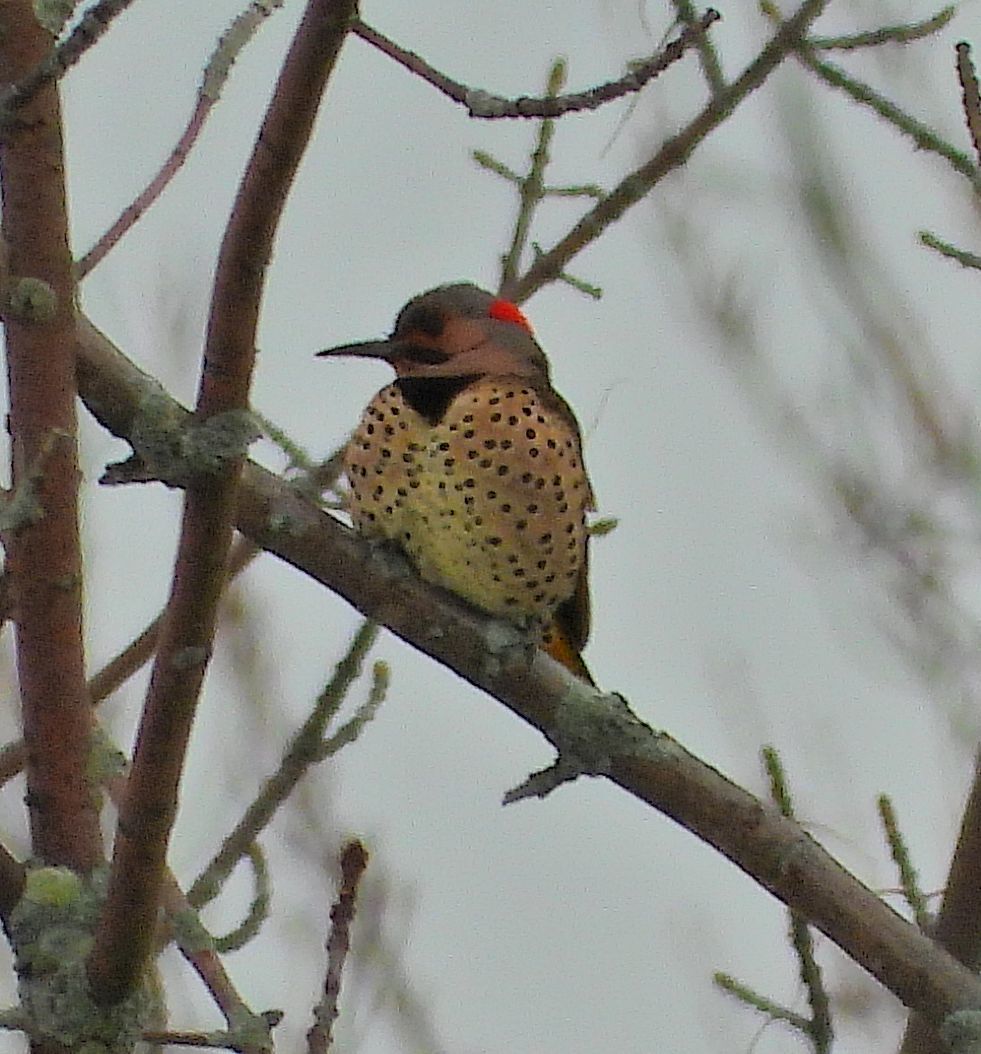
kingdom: Animalia
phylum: Chordata
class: Aves
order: Piciformes
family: Picidae
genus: Colaptes
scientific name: Colaptes auratus
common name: Northern flicker
